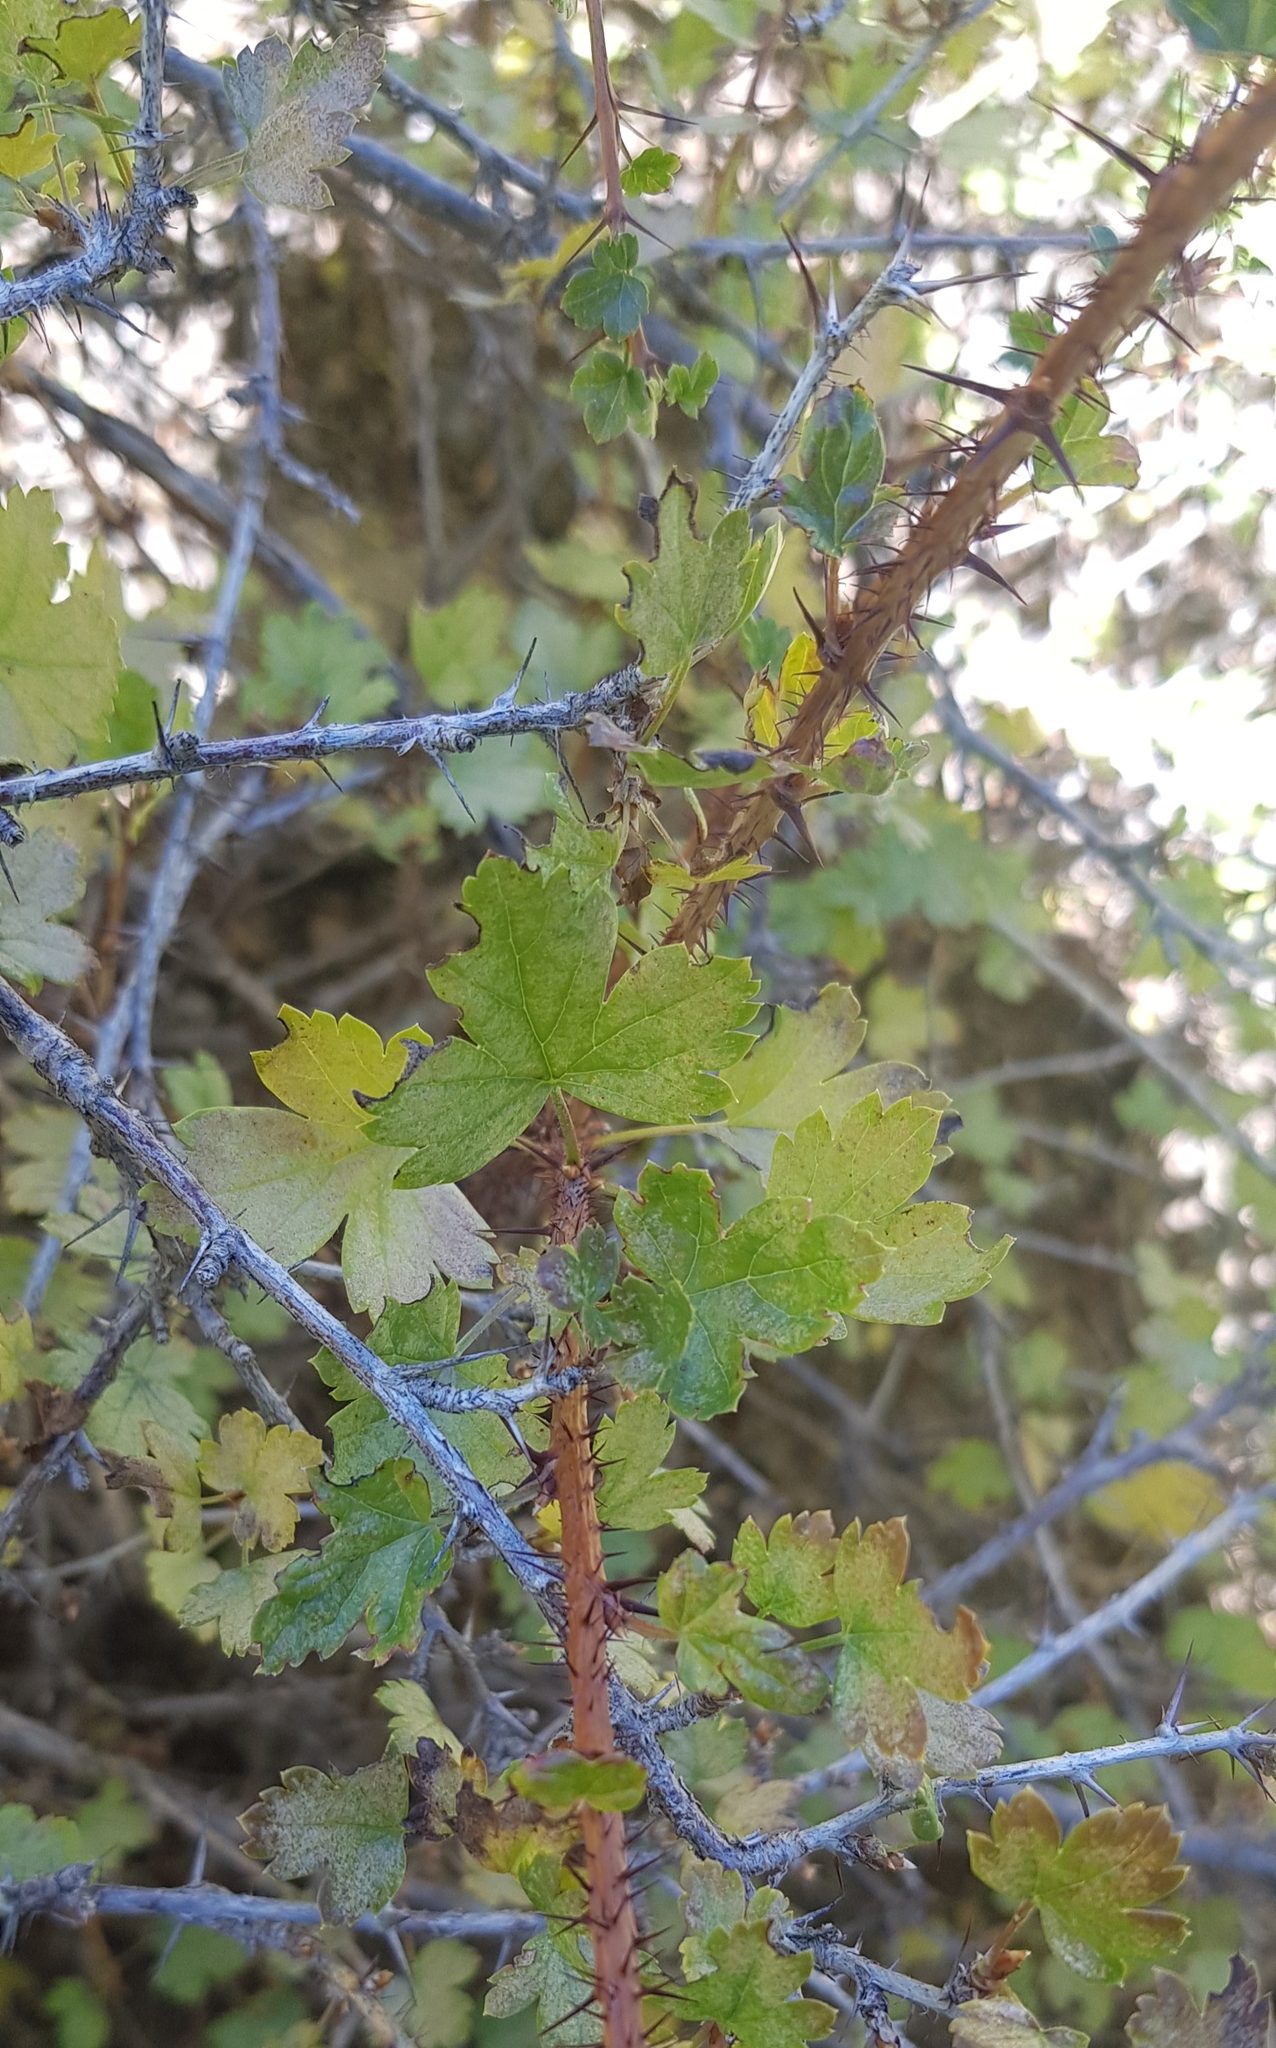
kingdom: Plantae
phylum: Tracheophyta
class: Magnoliopsida
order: Saxifragales
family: Grossulariaceae
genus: Ribes
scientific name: Ribes aciculare
